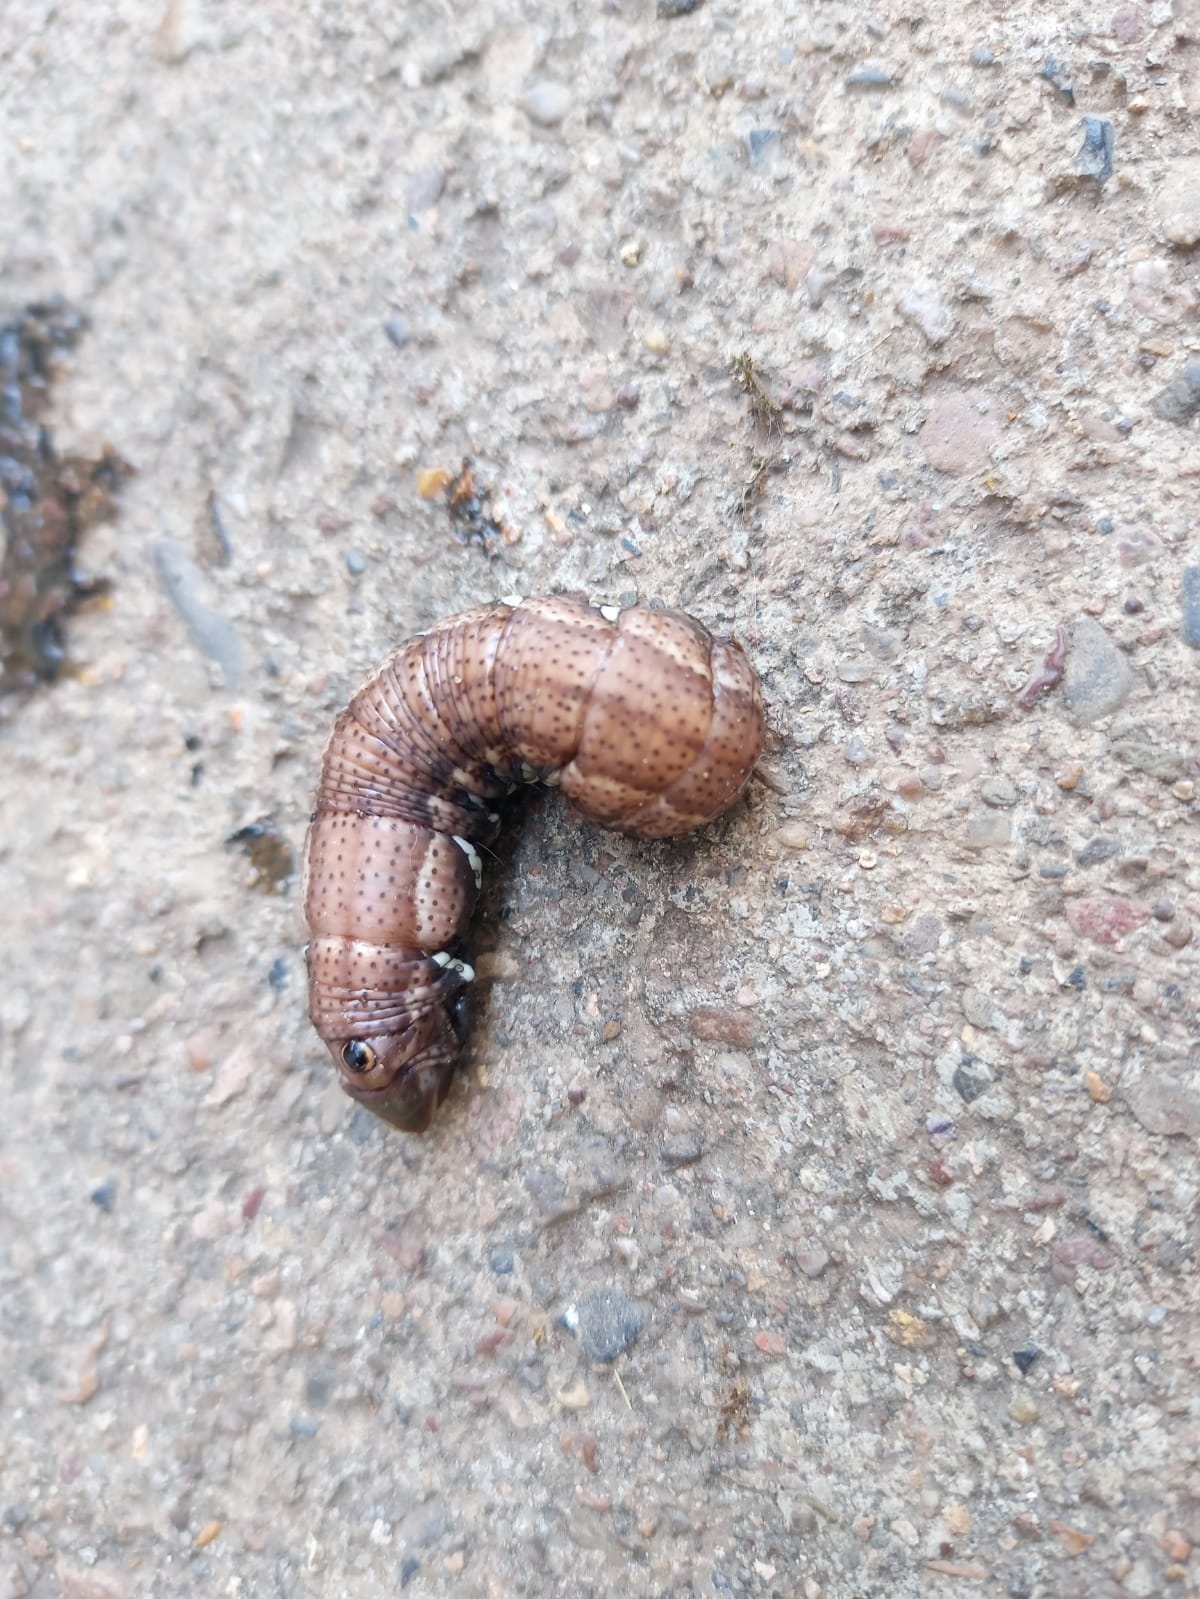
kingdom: Animalia
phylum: Arthropoda
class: Insecta
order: Lepidoptera
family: Sphingidae
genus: Eumorpha
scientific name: Eumorpha achemon
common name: Achemon sphinx
